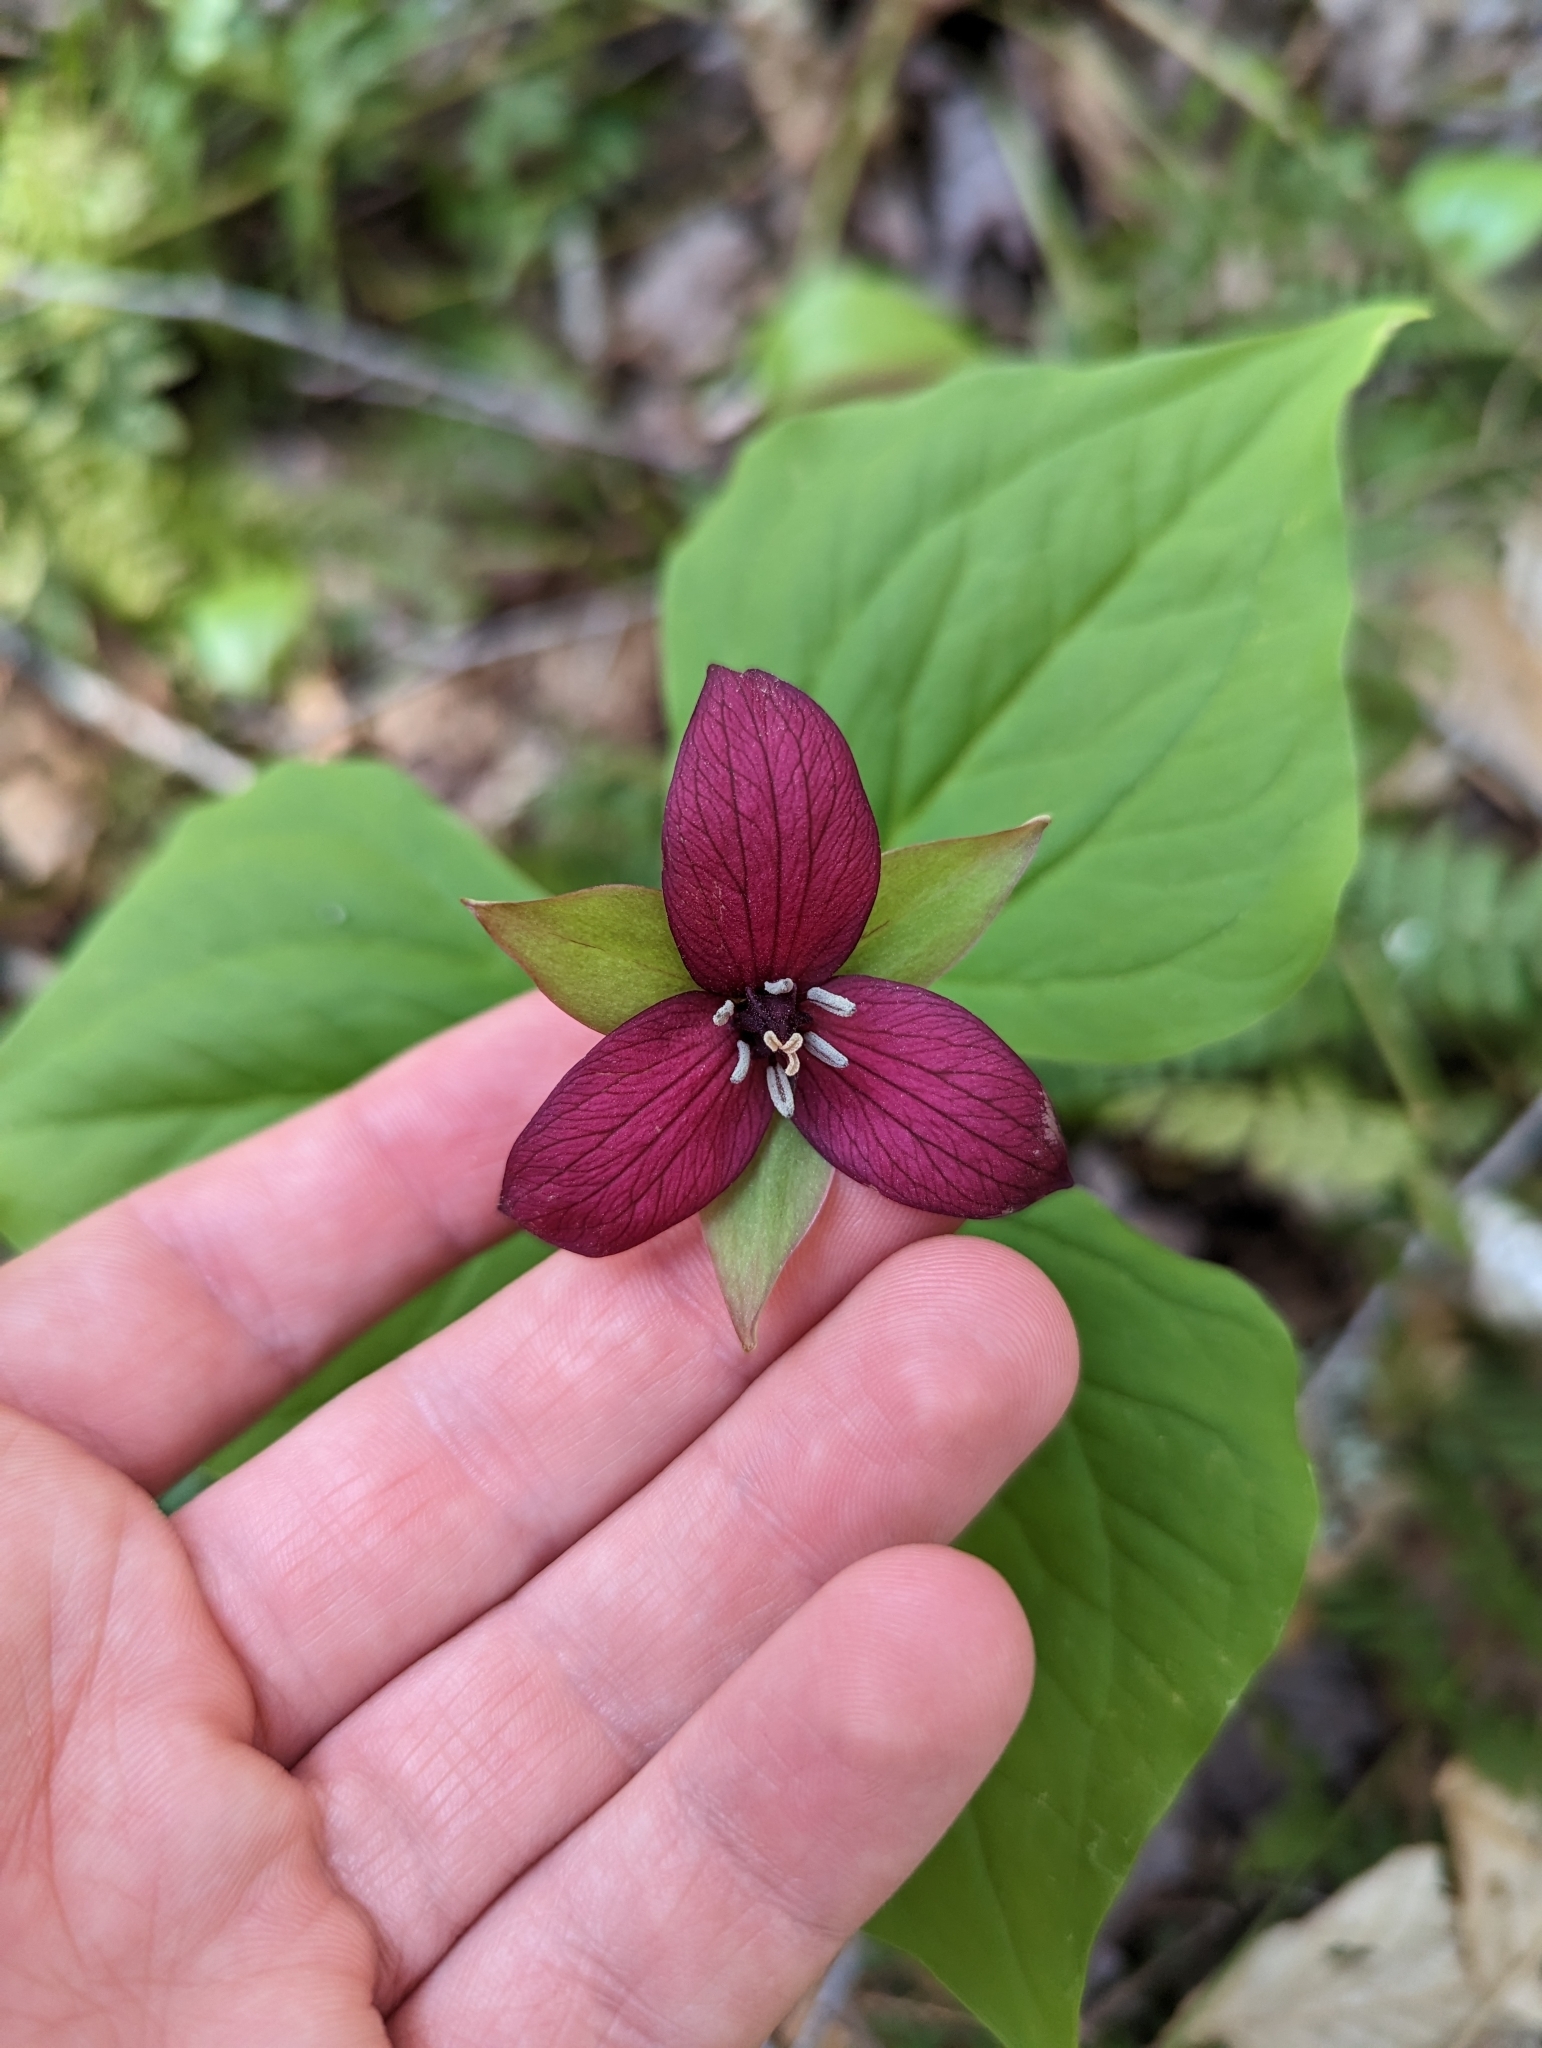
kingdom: Plantae
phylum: Tracheophyta
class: Liliopsida
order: Liliales
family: Melanthiaceae
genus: Trillium
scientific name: Trillium erectum
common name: Purple trillium
